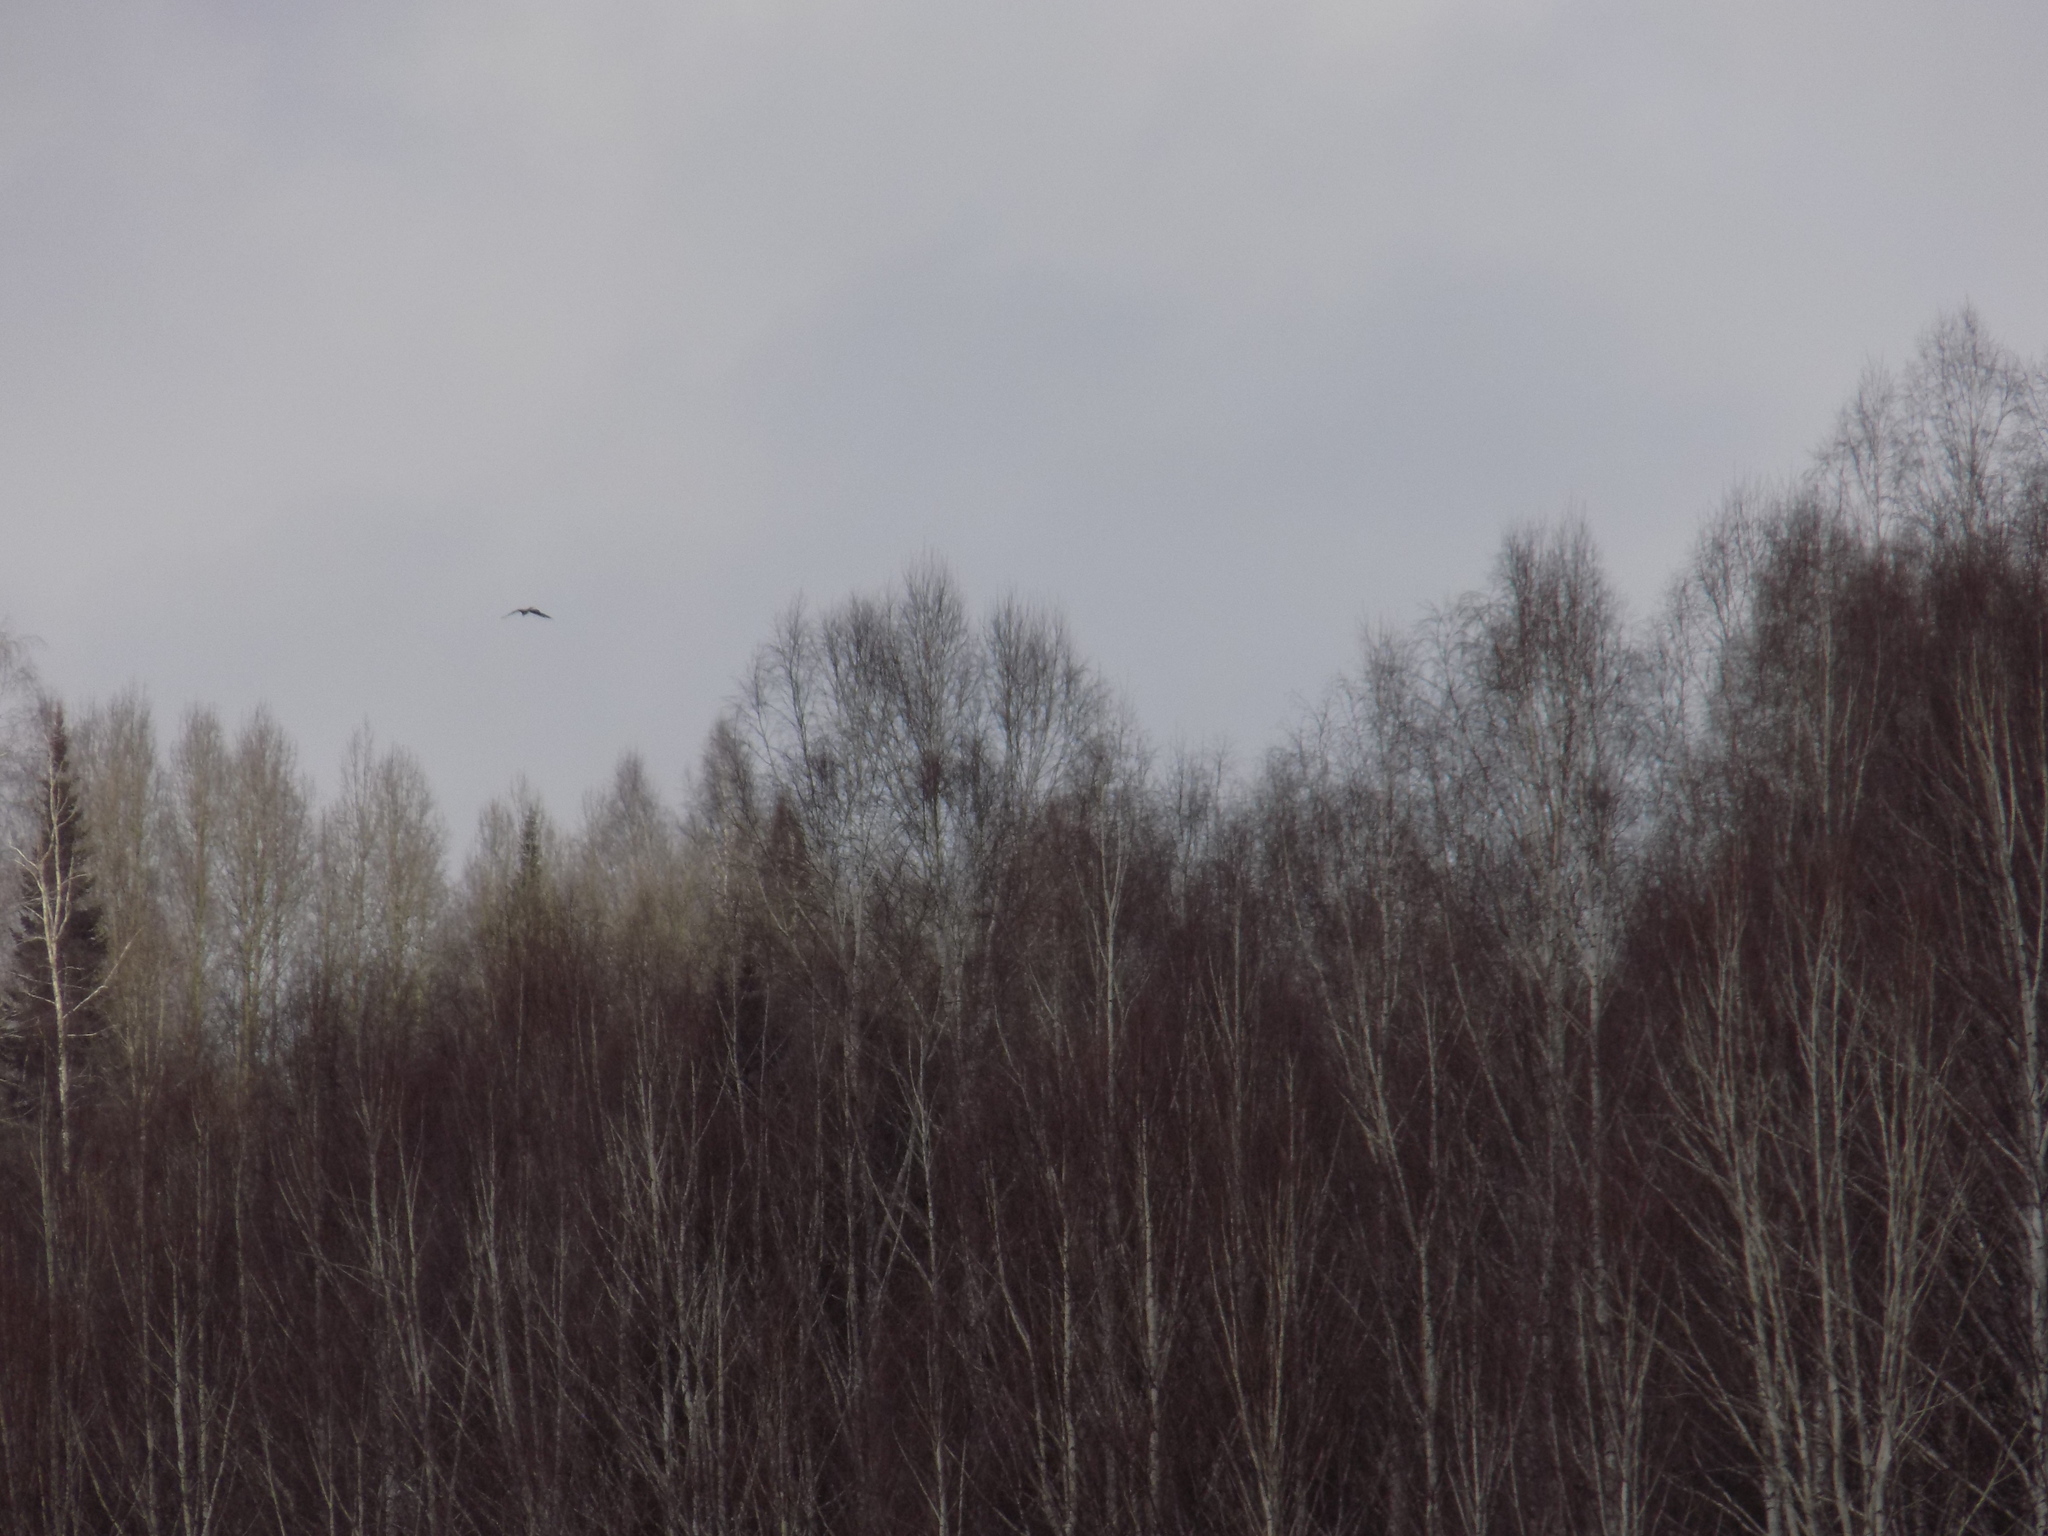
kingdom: Animalia
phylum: Chordata
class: Aves
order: Accipitriformes
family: Accipitridae
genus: Milvus
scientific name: Milvus migrans
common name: Black kite
